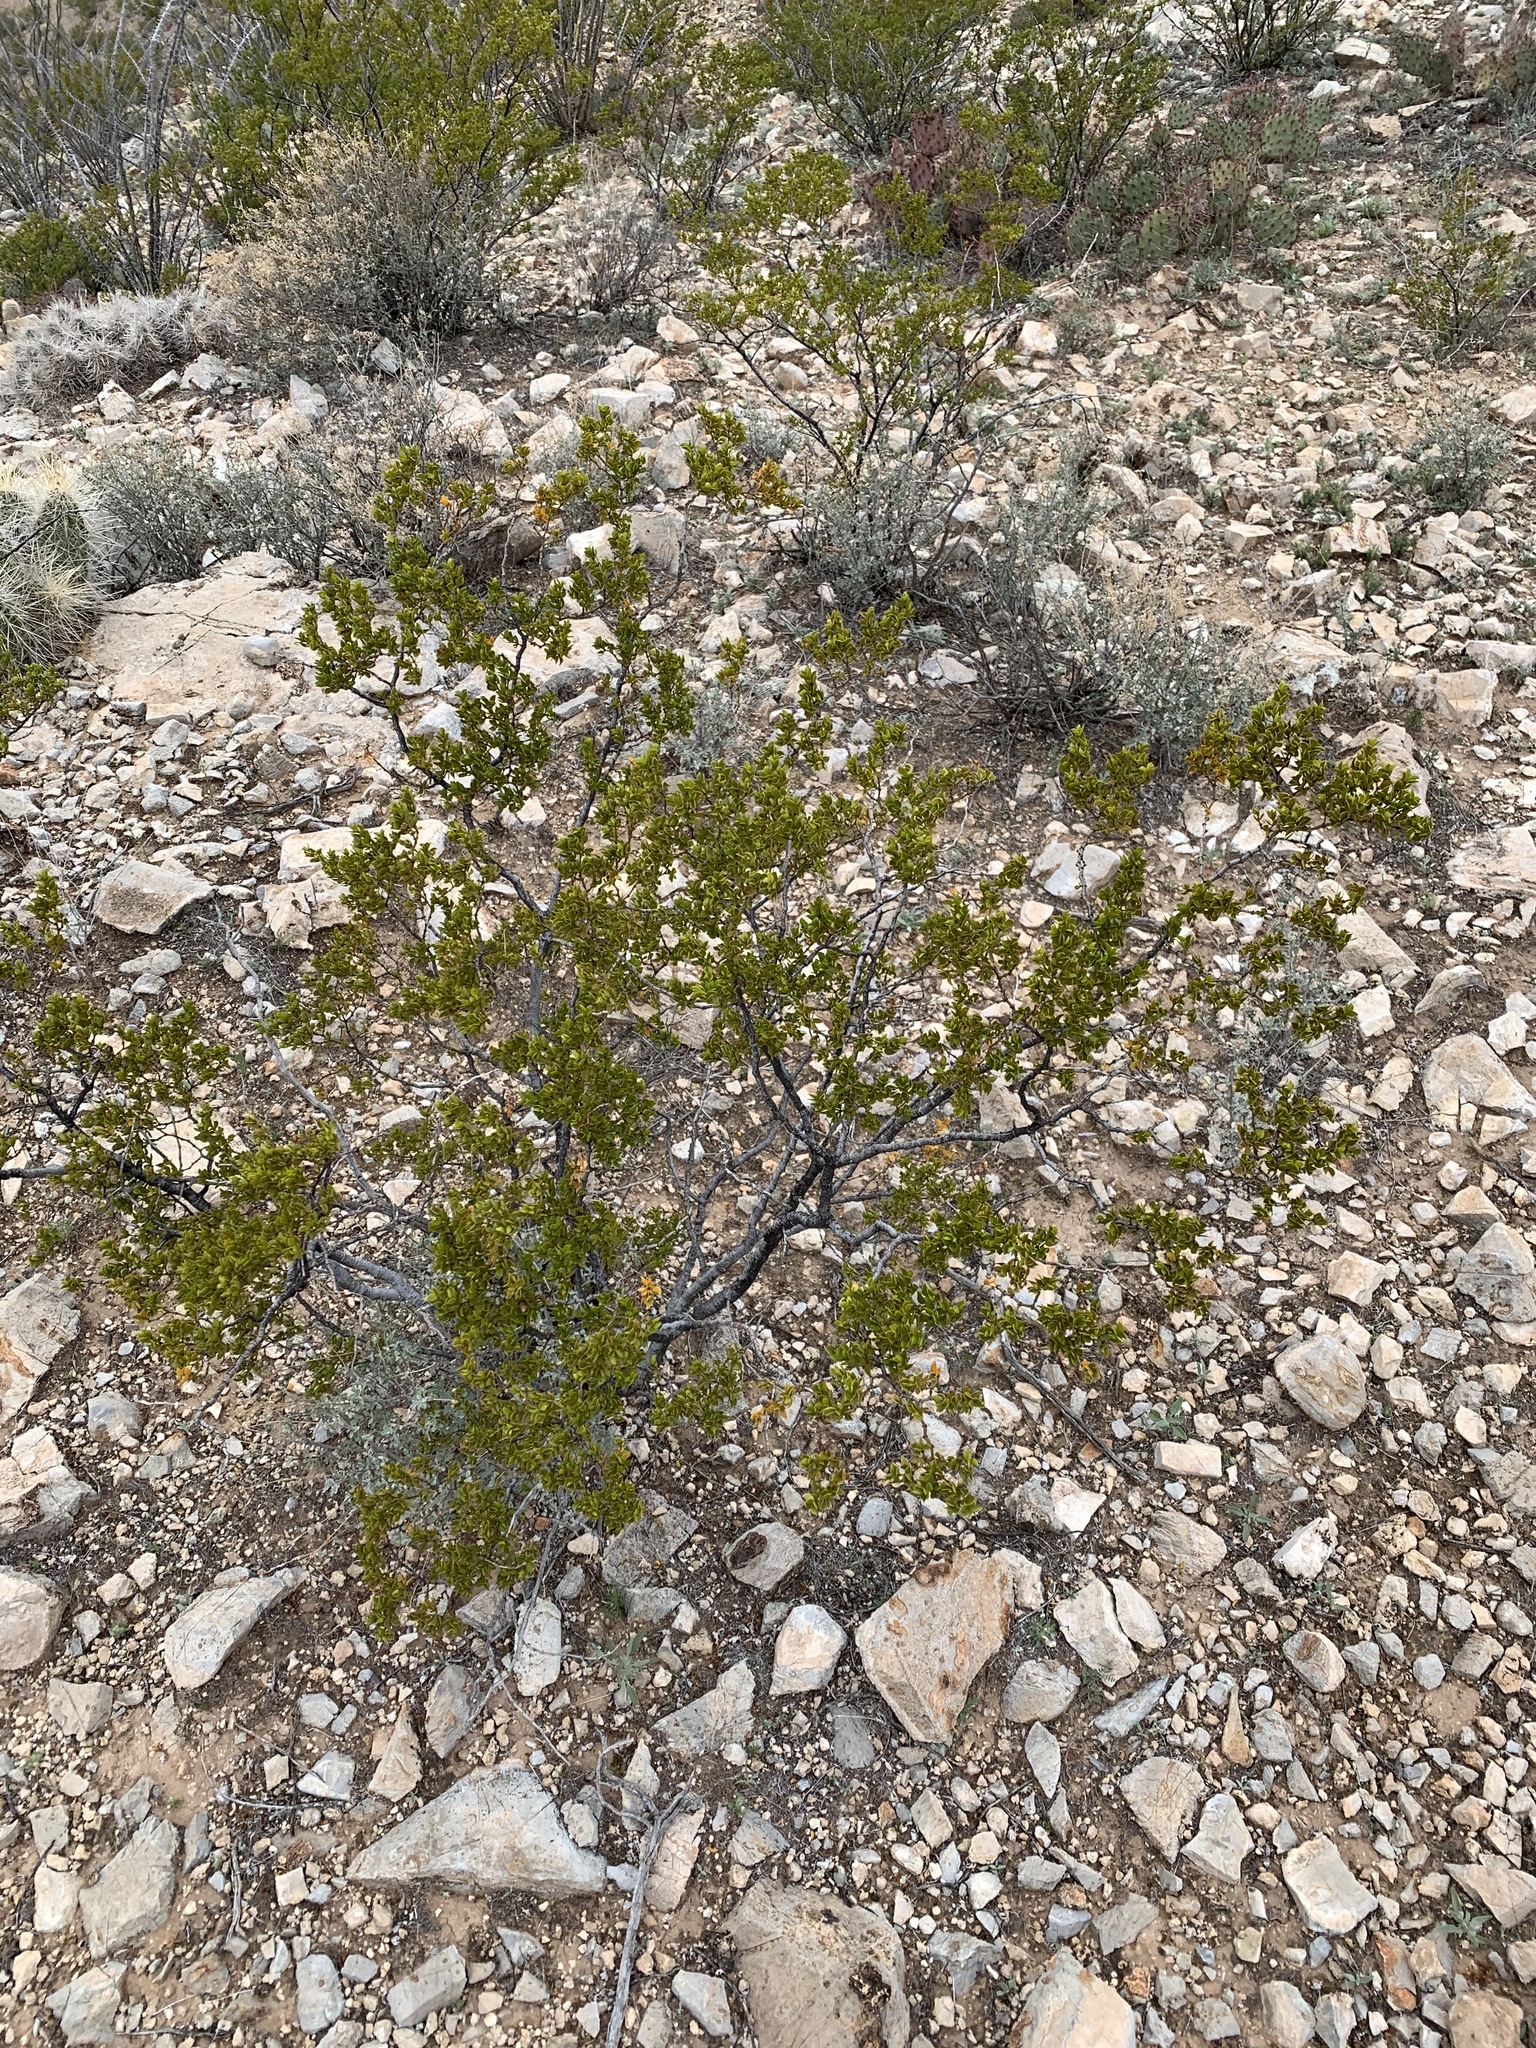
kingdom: Plantae
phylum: Tracheophyta
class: Magnoliopsida
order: Zygophyllales
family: Zygophyllaceae
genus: Larrea
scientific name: Larrea tridentata
